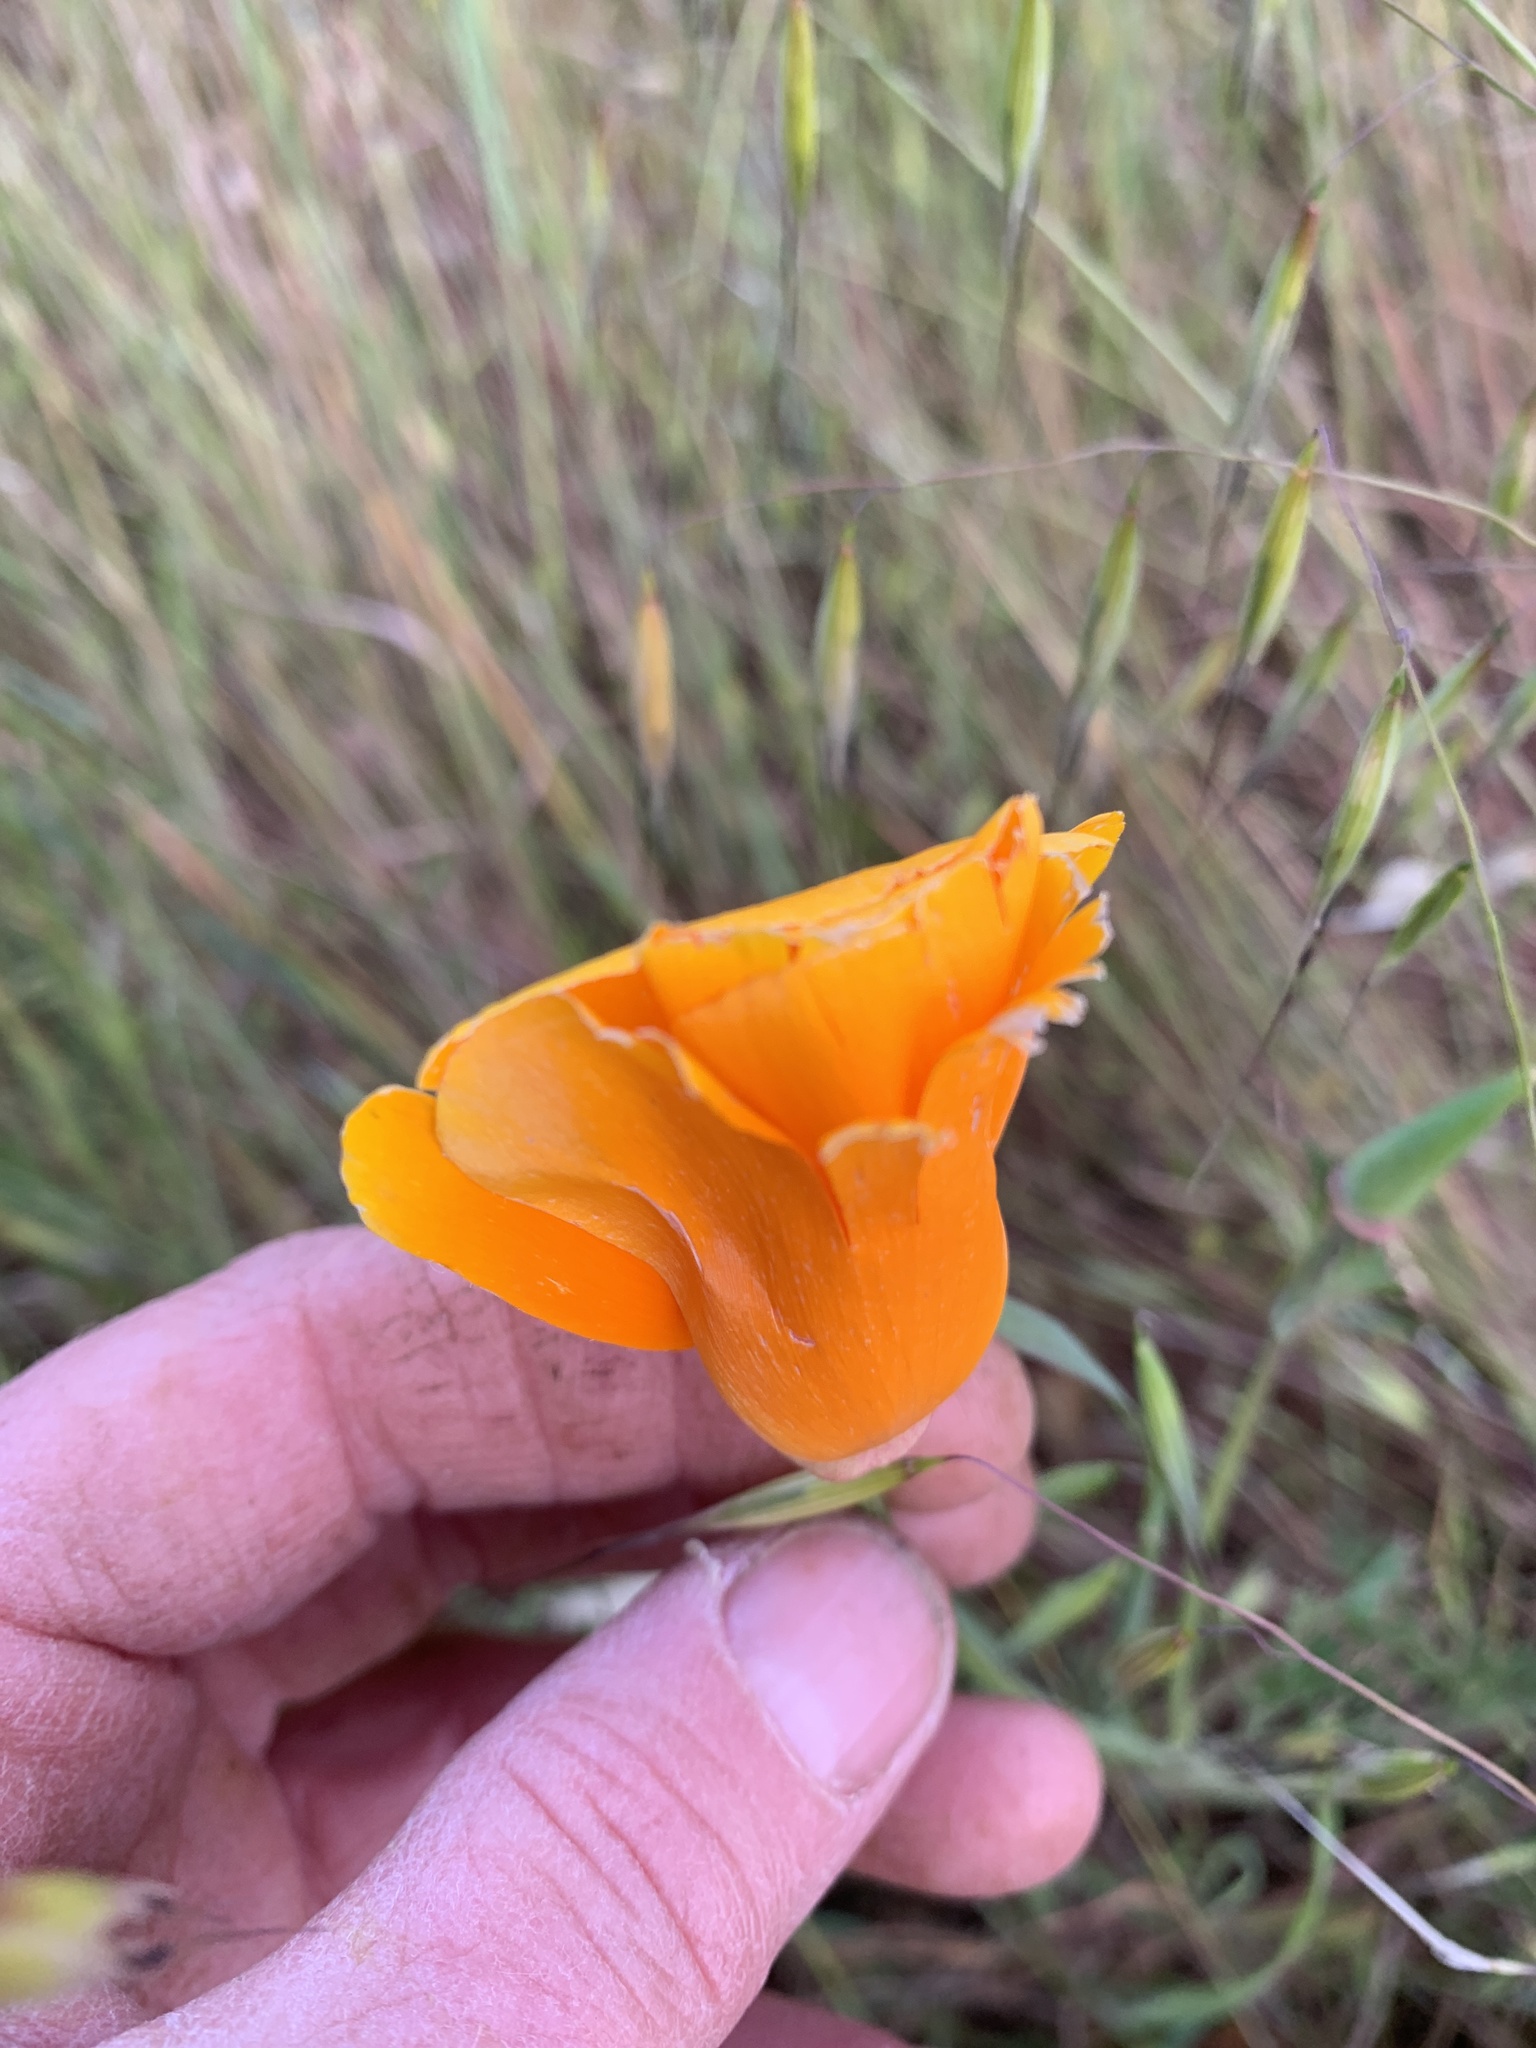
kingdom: Plantae
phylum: Tracheophyta
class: Magnoliopsida
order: Ranunculales
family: Papaveraceae
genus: Eschscholzia
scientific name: Eschscholzia californica
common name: California poppy
